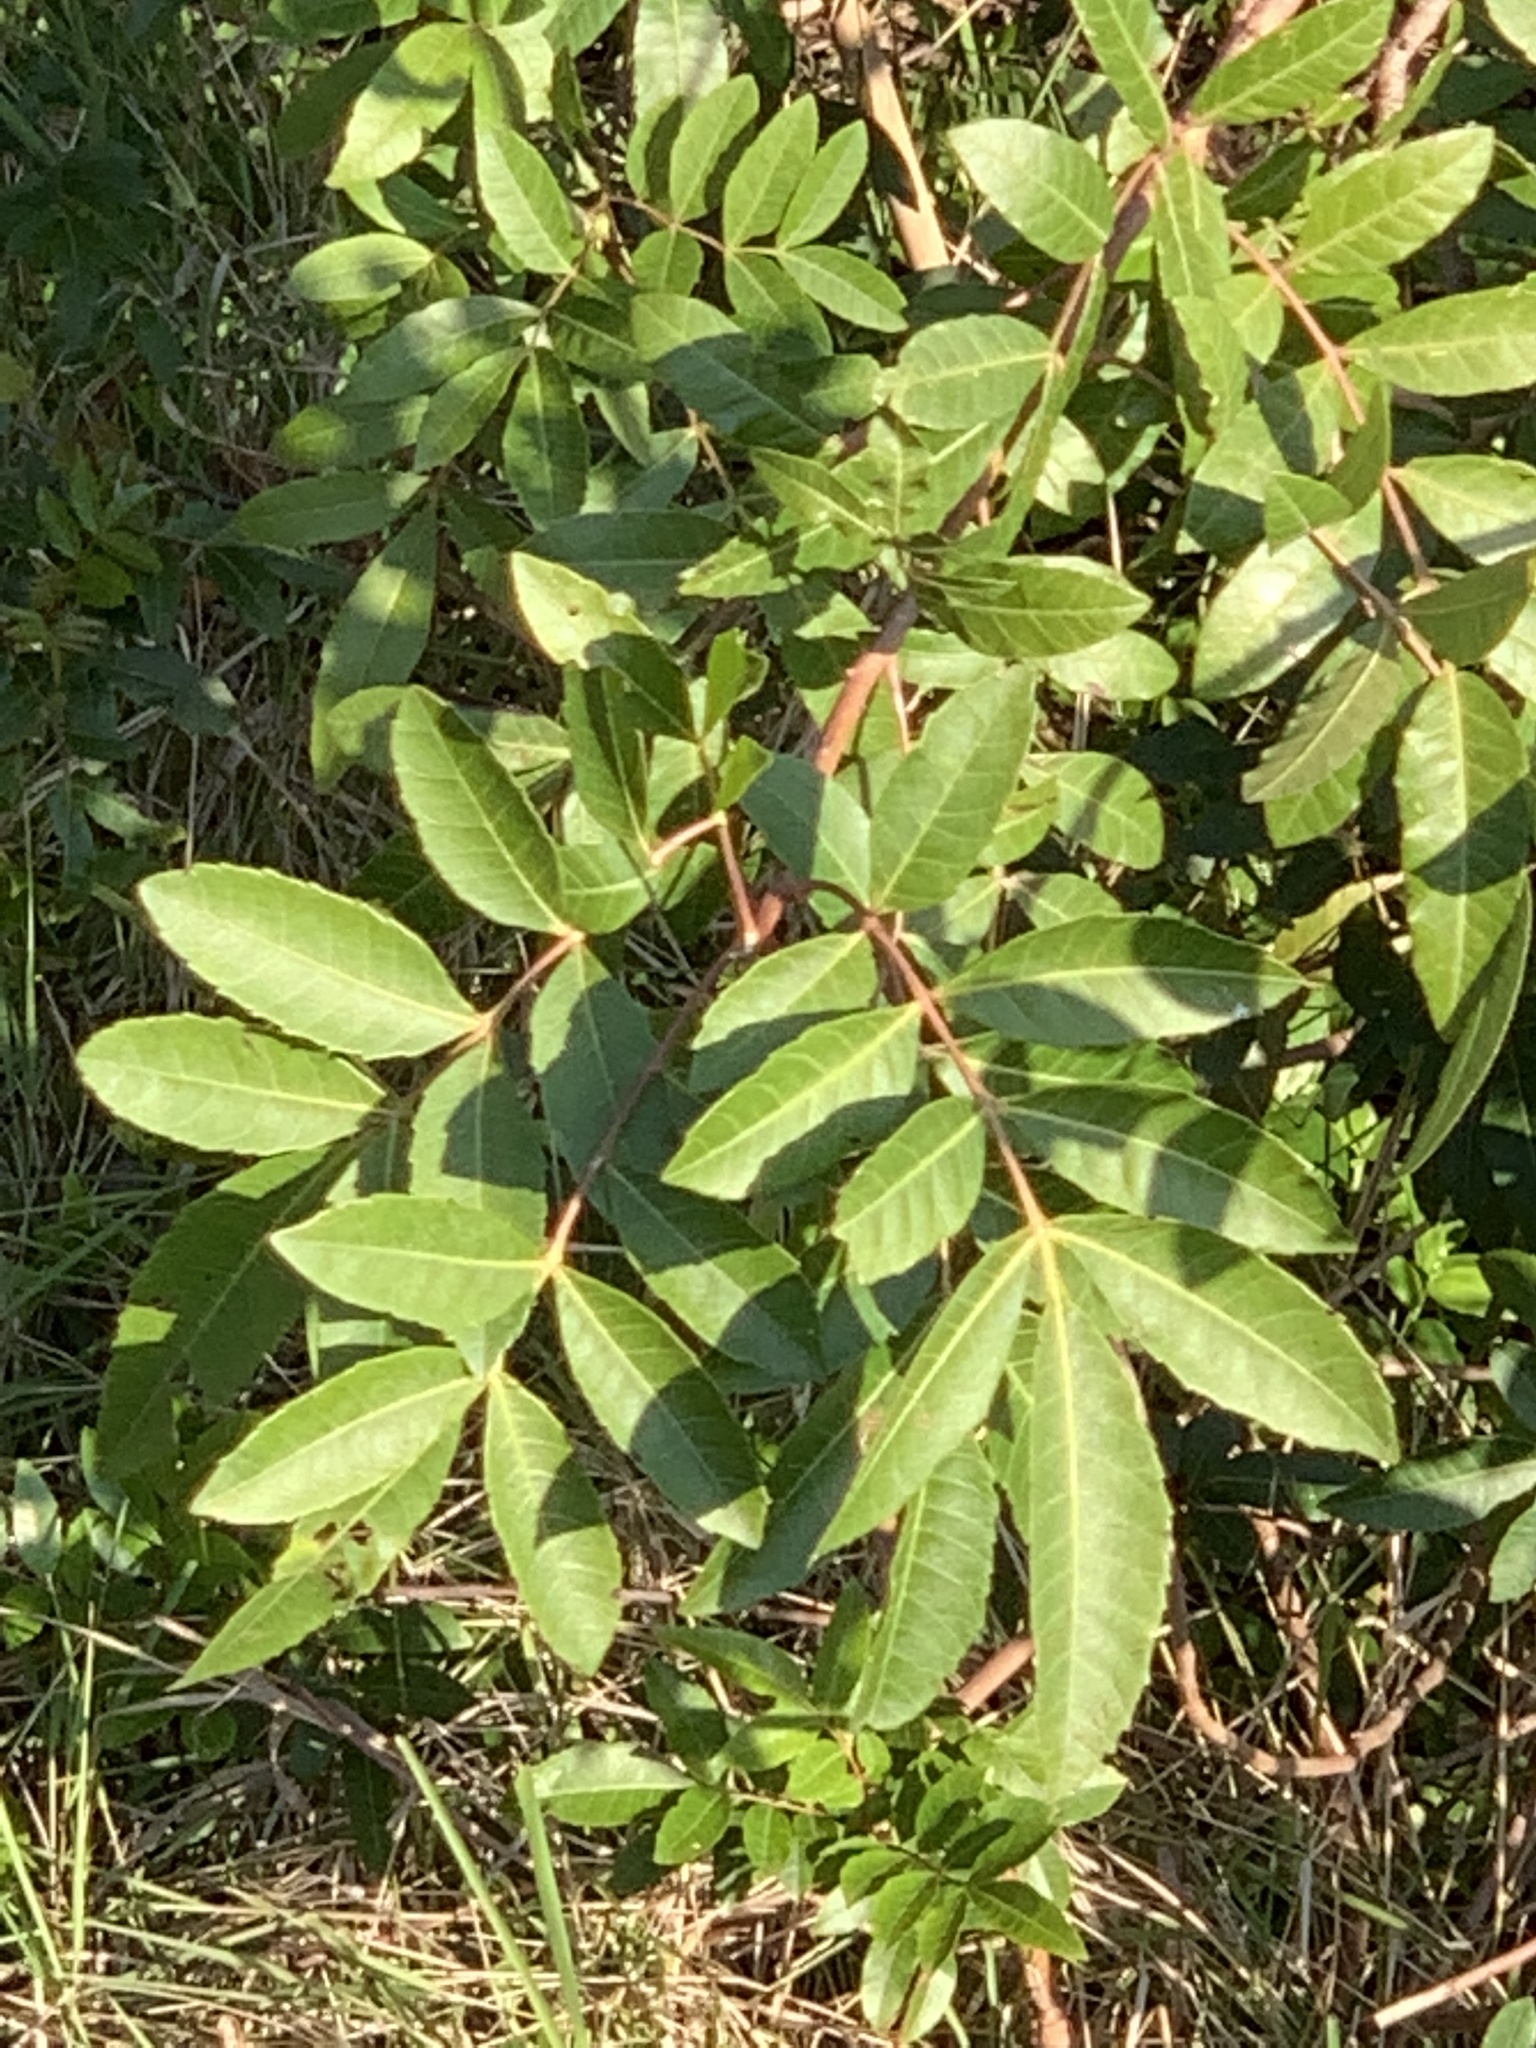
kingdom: Plantae
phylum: Tracheophyta
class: Magnoliopsida
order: Sapindales
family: Anacardiaceae
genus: Schinus
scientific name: Schinus terebinthifolia
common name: Brazilian peppertree
